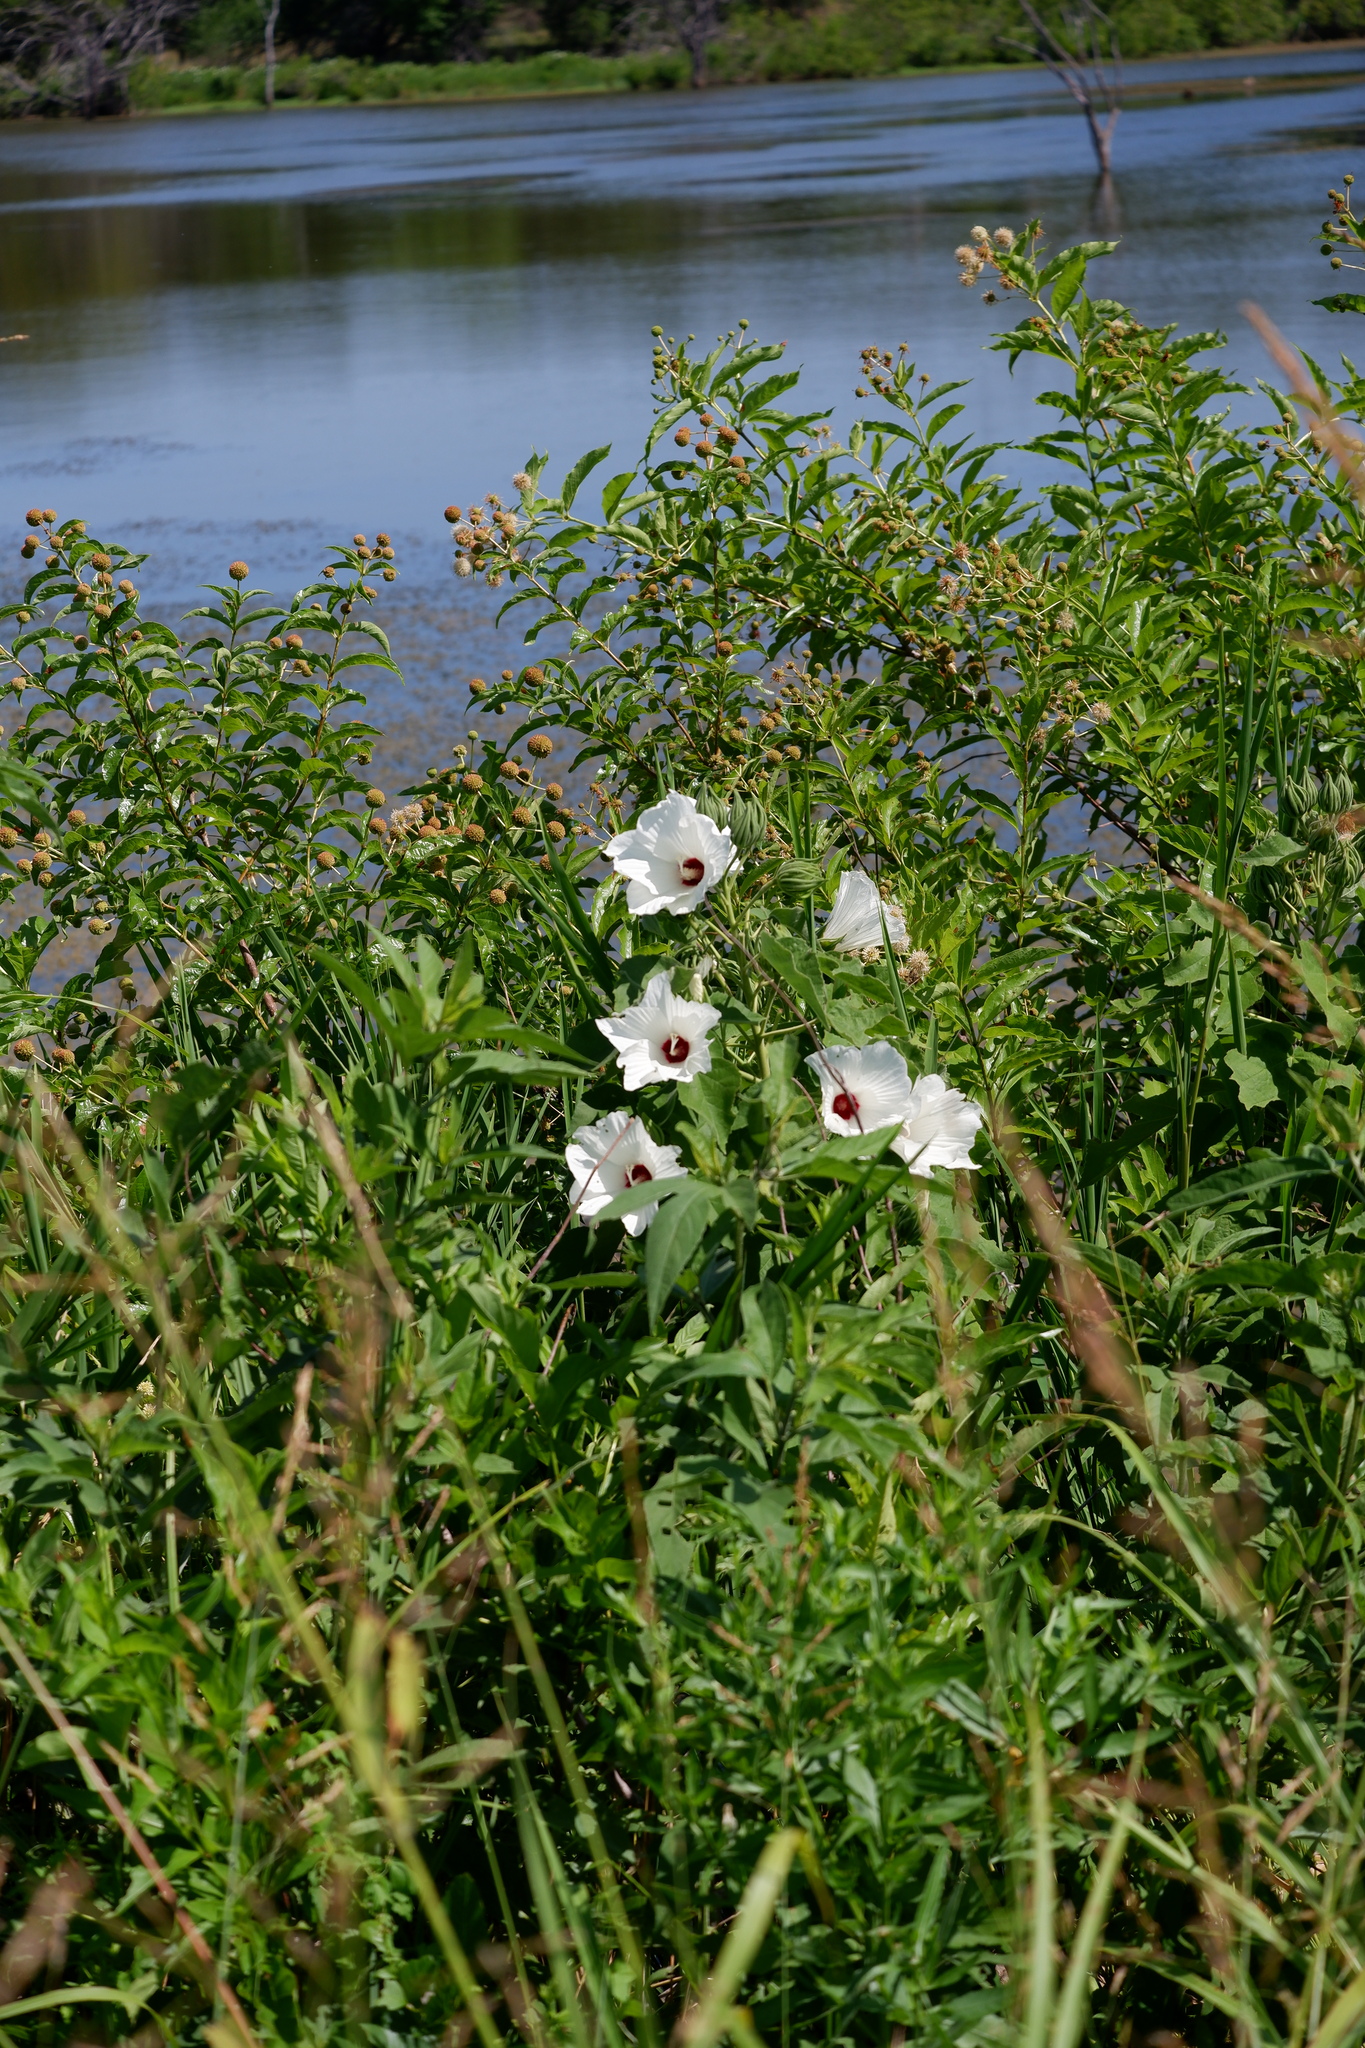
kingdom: Plantae
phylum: Tracheophyta
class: Magnoliopsida
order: Malvales
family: Malvaceae
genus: Hibiscus
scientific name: Hibiscus moscheutos
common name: Common rose-mallow
